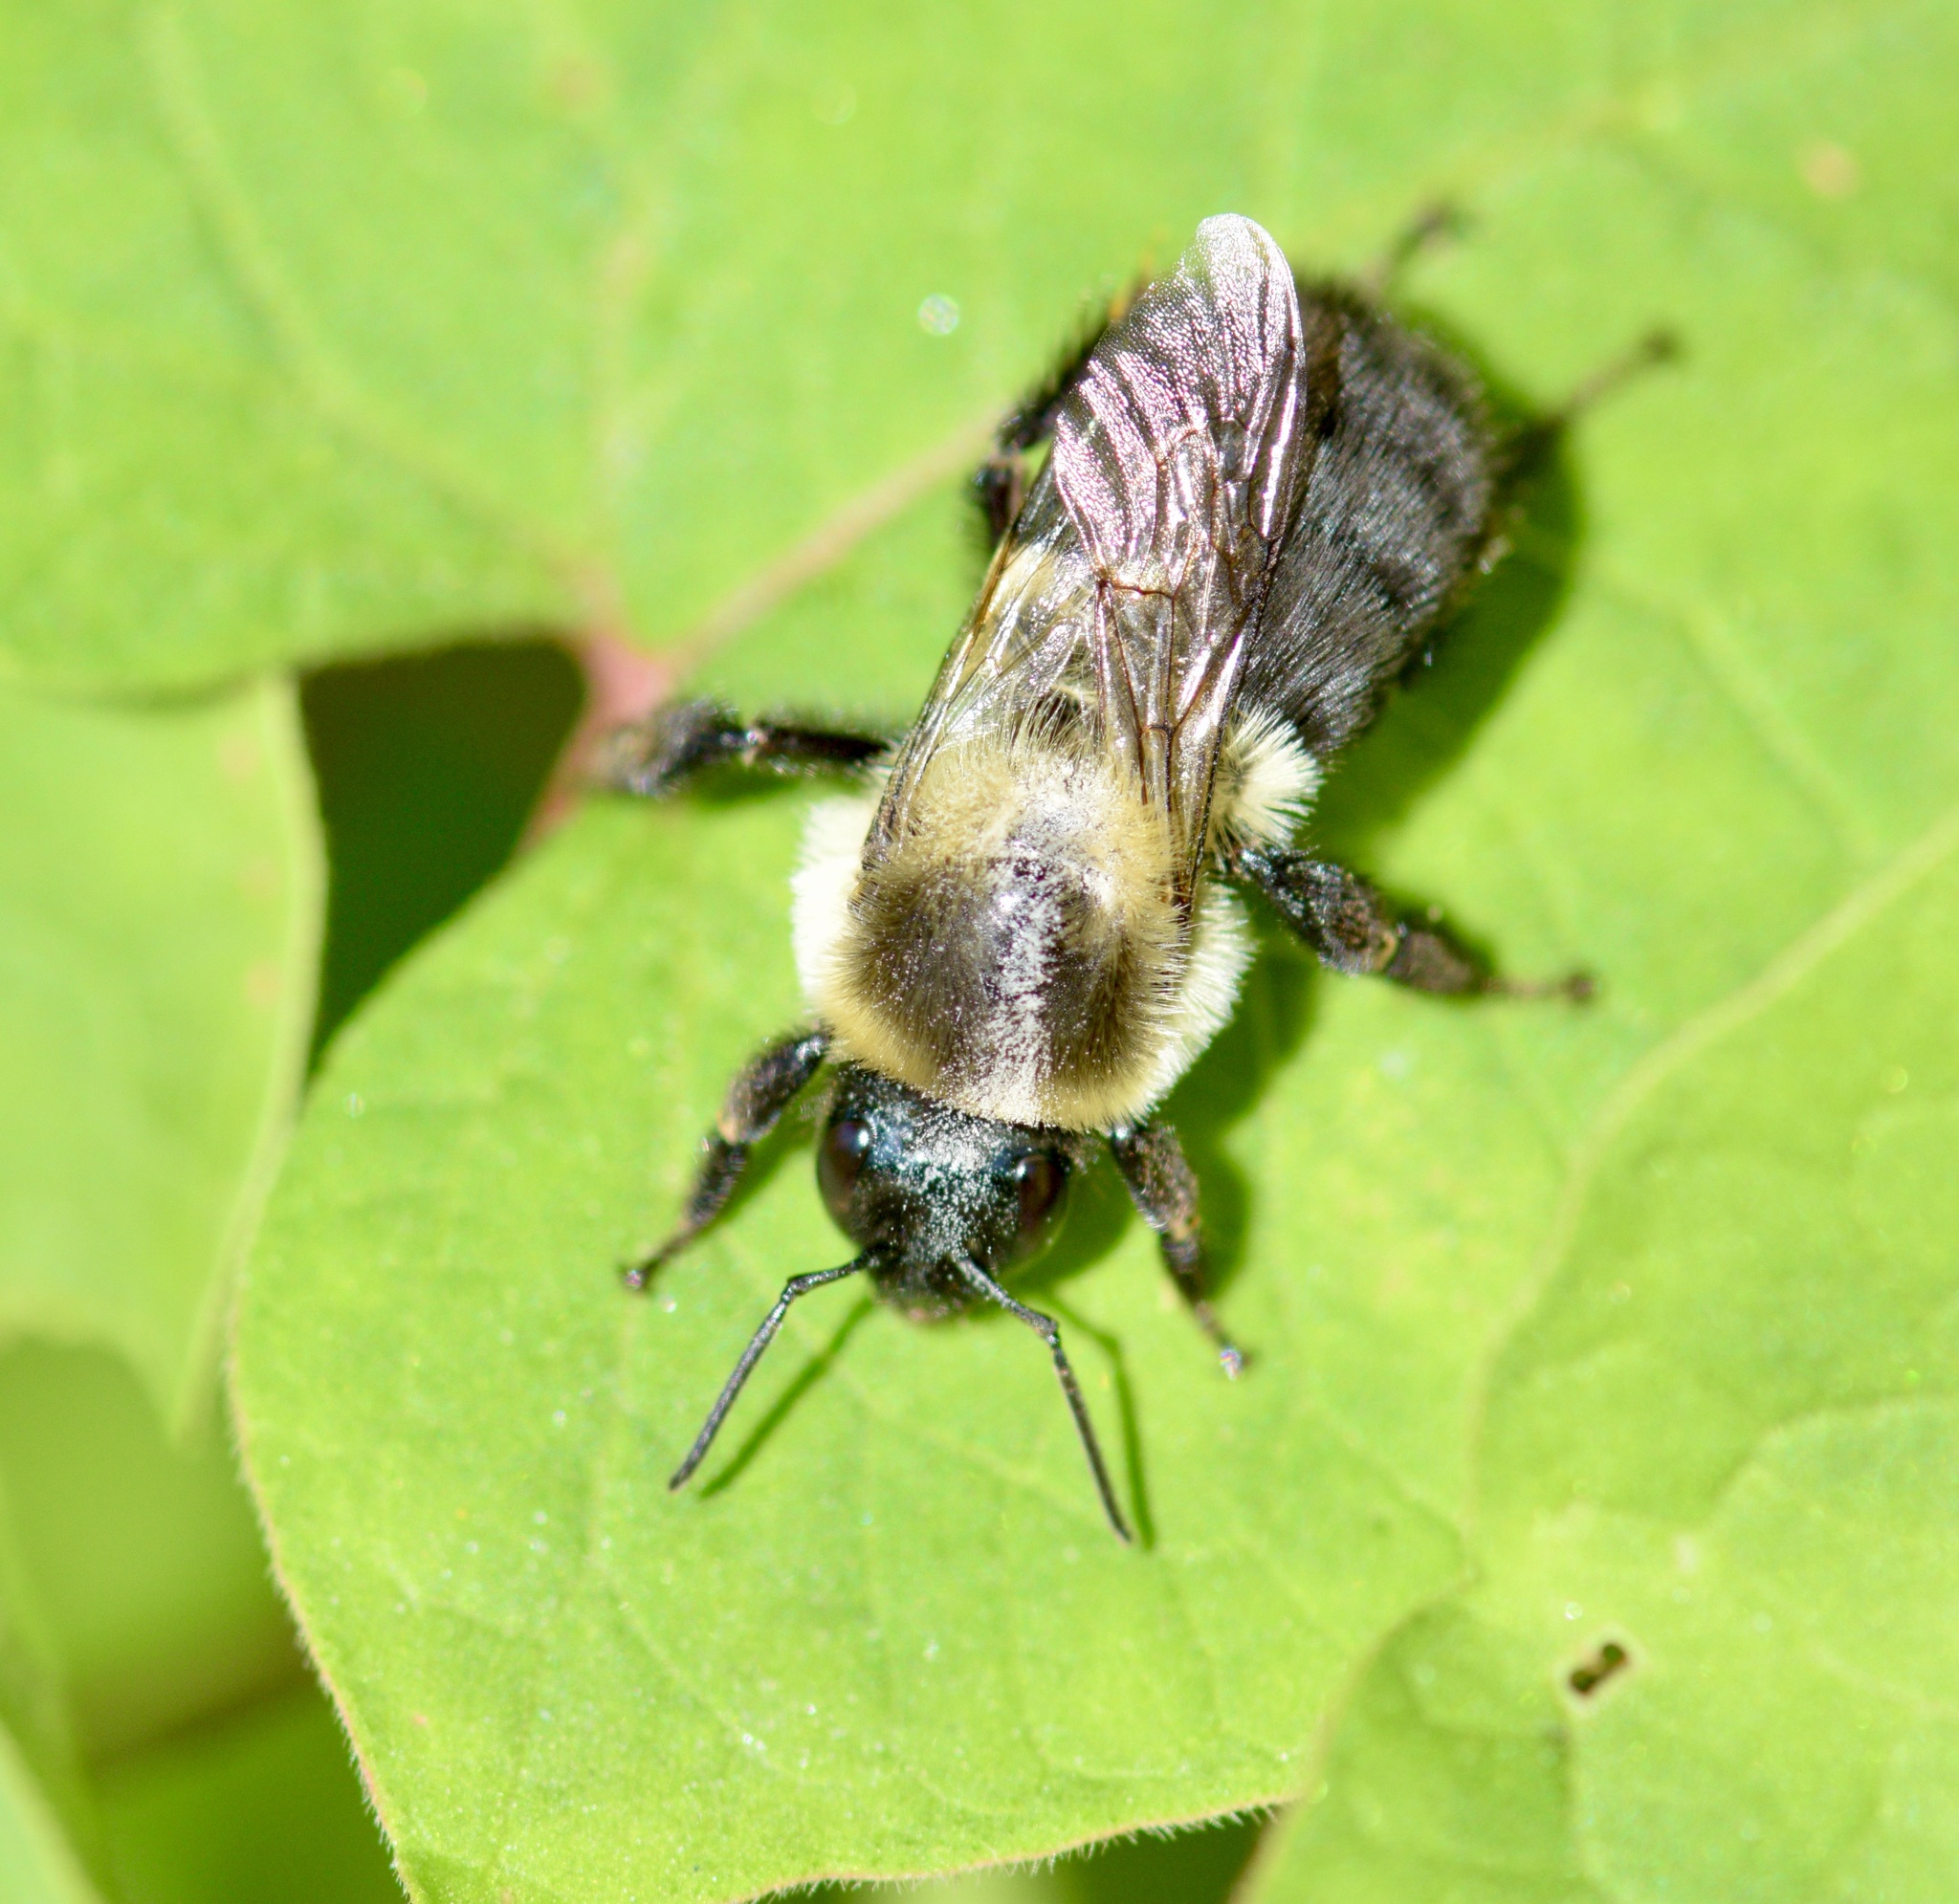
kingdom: Animalia
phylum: Arthropoda
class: Insecta
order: Hymenoptera
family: Apidae
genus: Bombus
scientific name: Bombus impatiens
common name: Common eastern bumble bee
